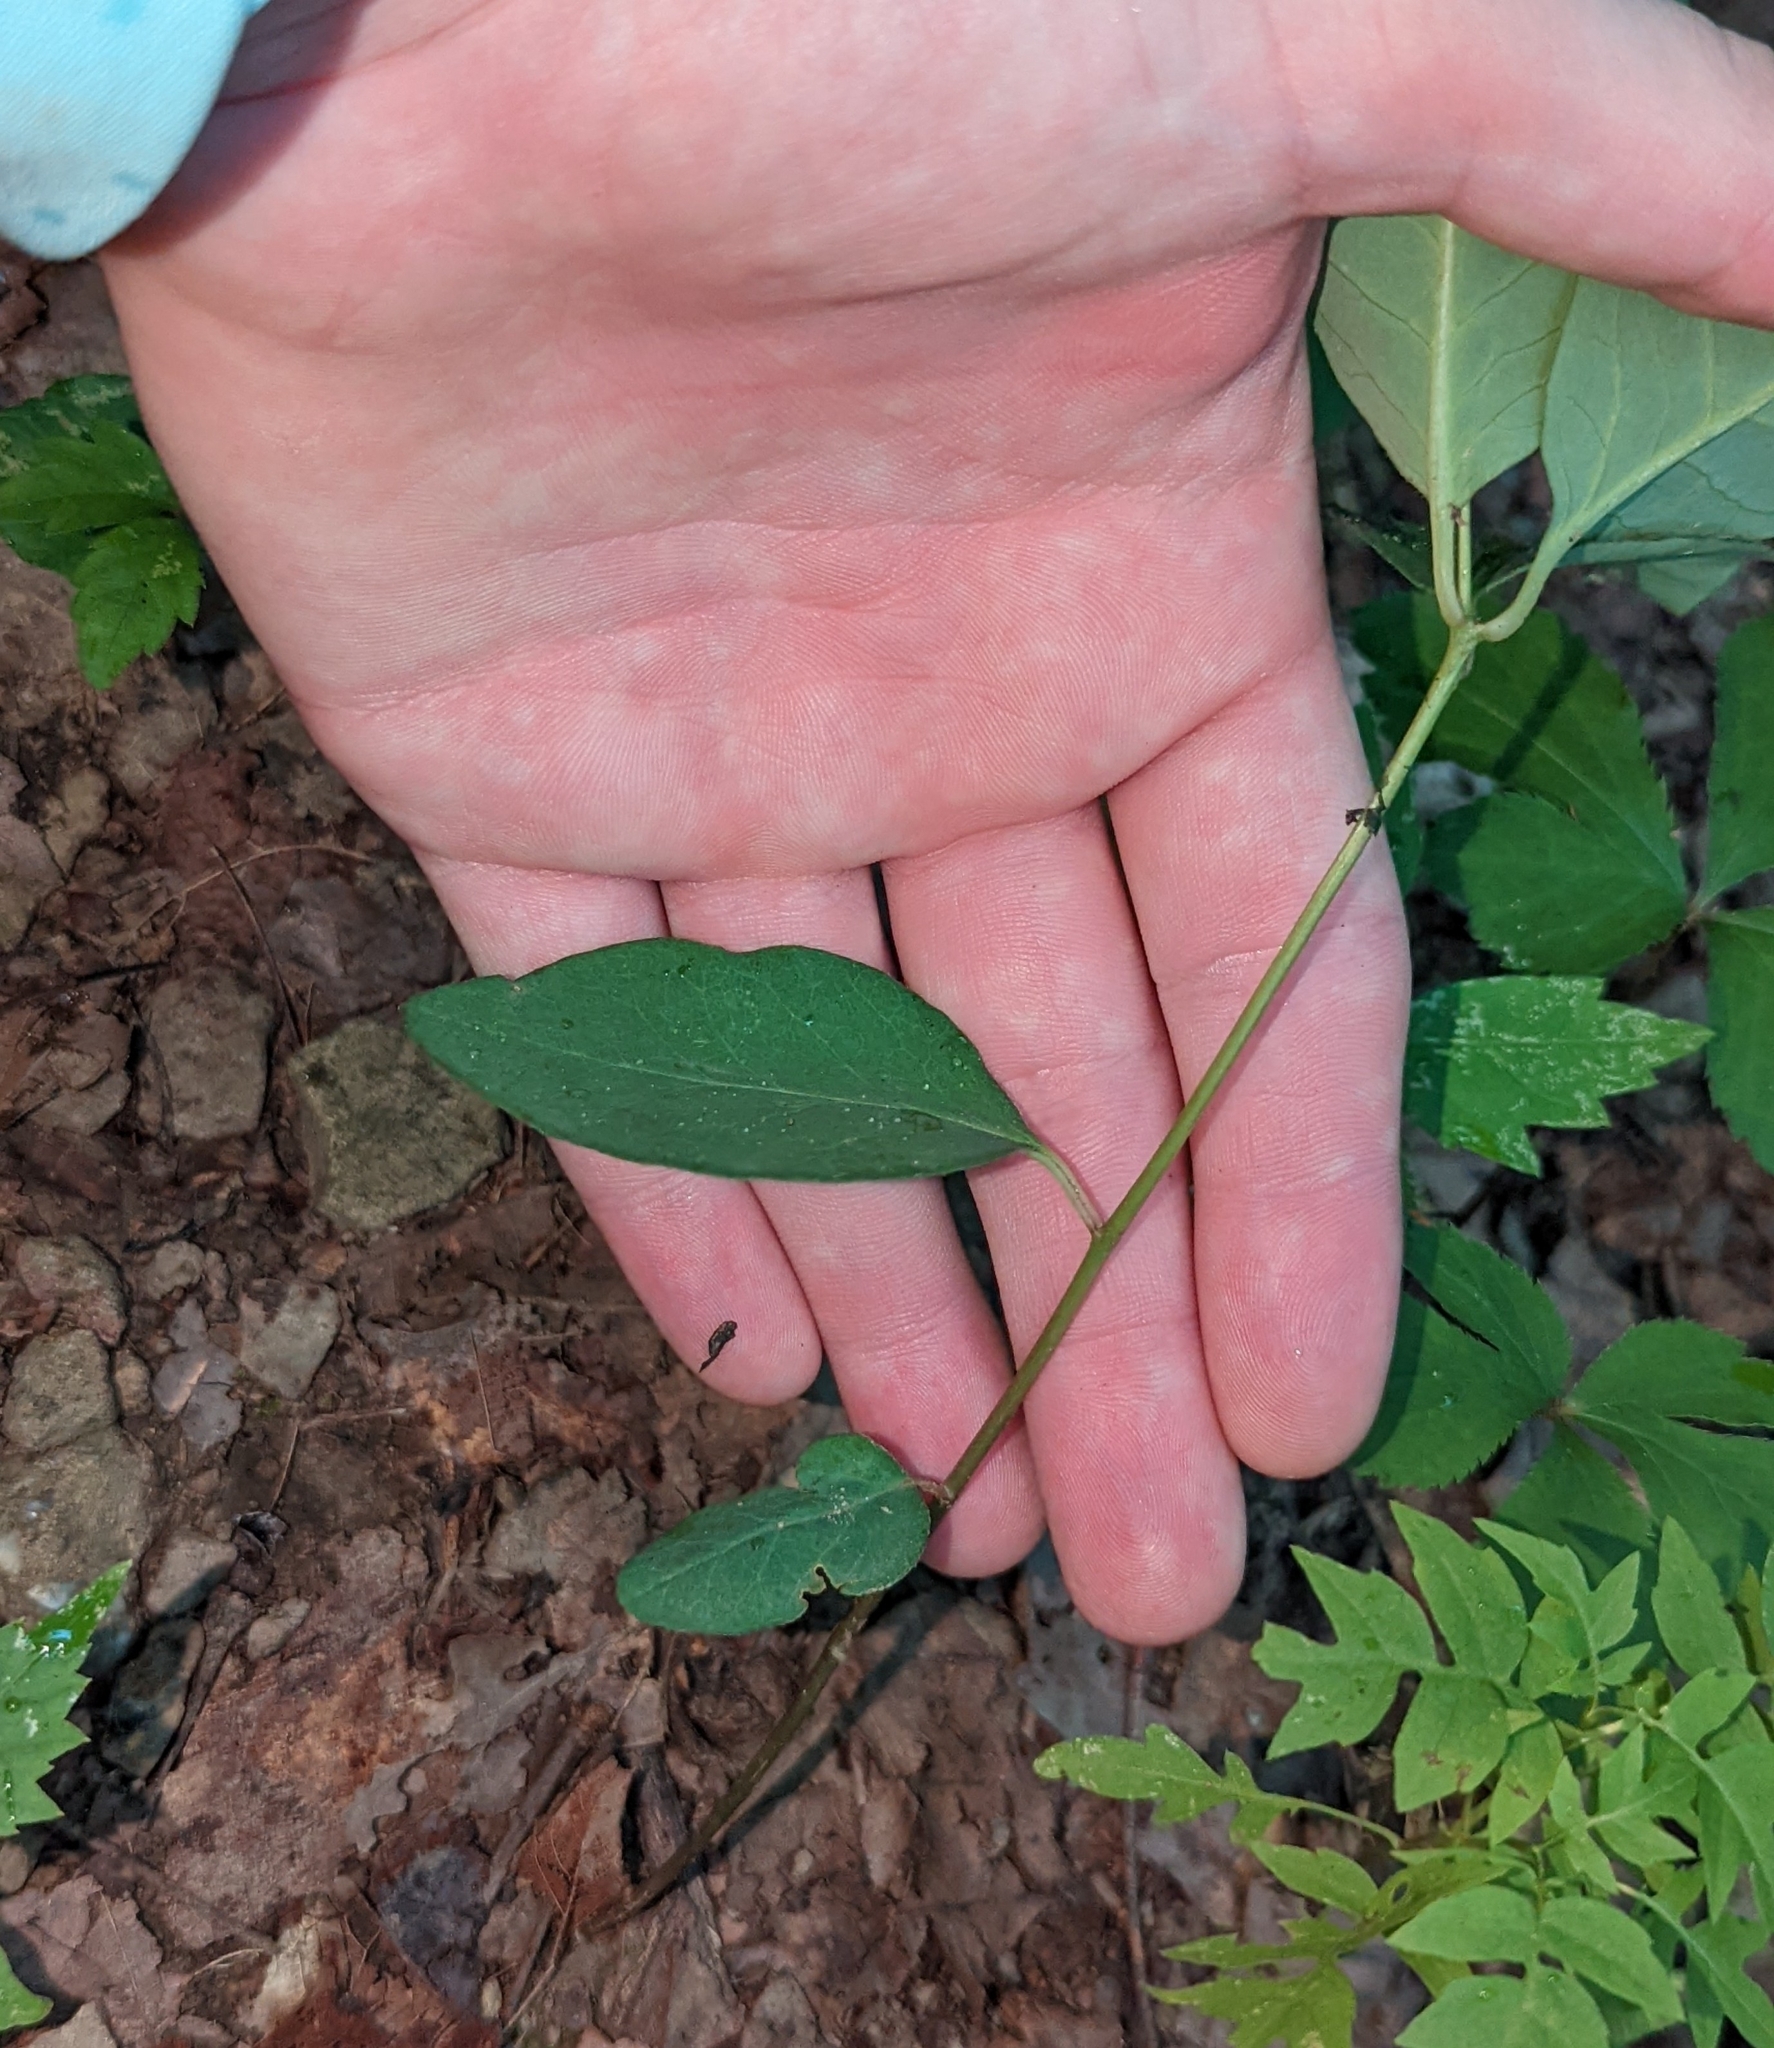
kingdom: Plantae
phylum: Tracheophyta
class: Magnoliopsida
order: Malpighiales
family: Euphorbiaceae
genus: Euphorbia
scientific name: Euphorbia mercurialina
